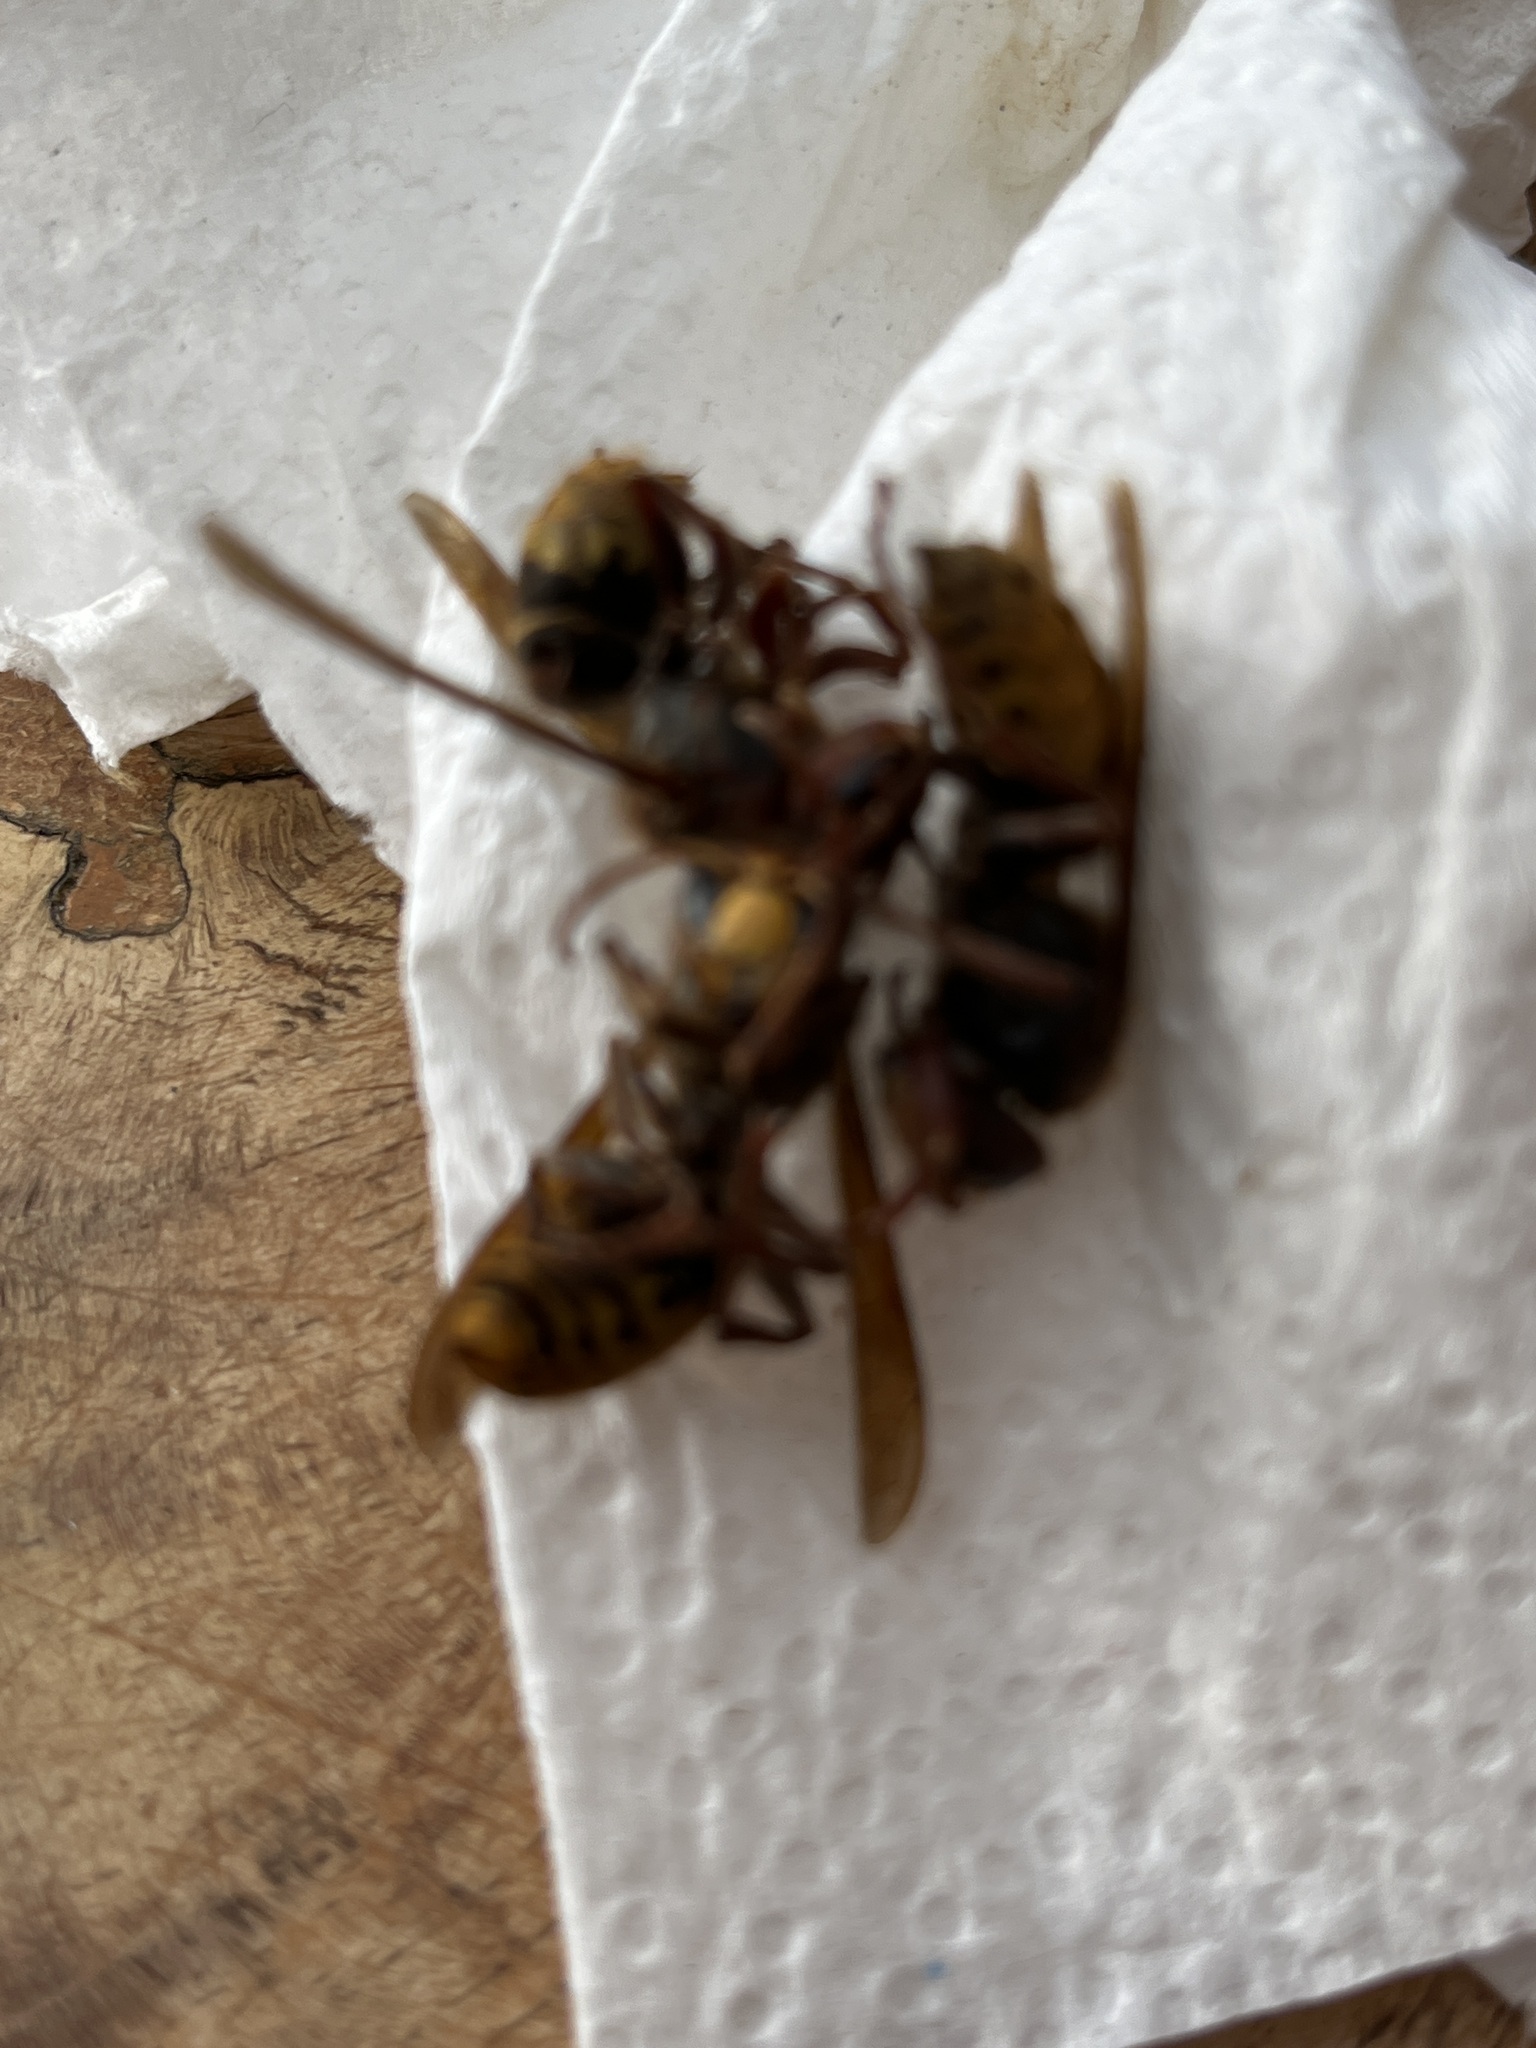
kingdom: Animalia
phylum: Arthropoda
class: Insecta
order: Hymenoptera
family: Vespidae
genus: Vespa
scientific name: Vespa crabro
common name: Hornet
